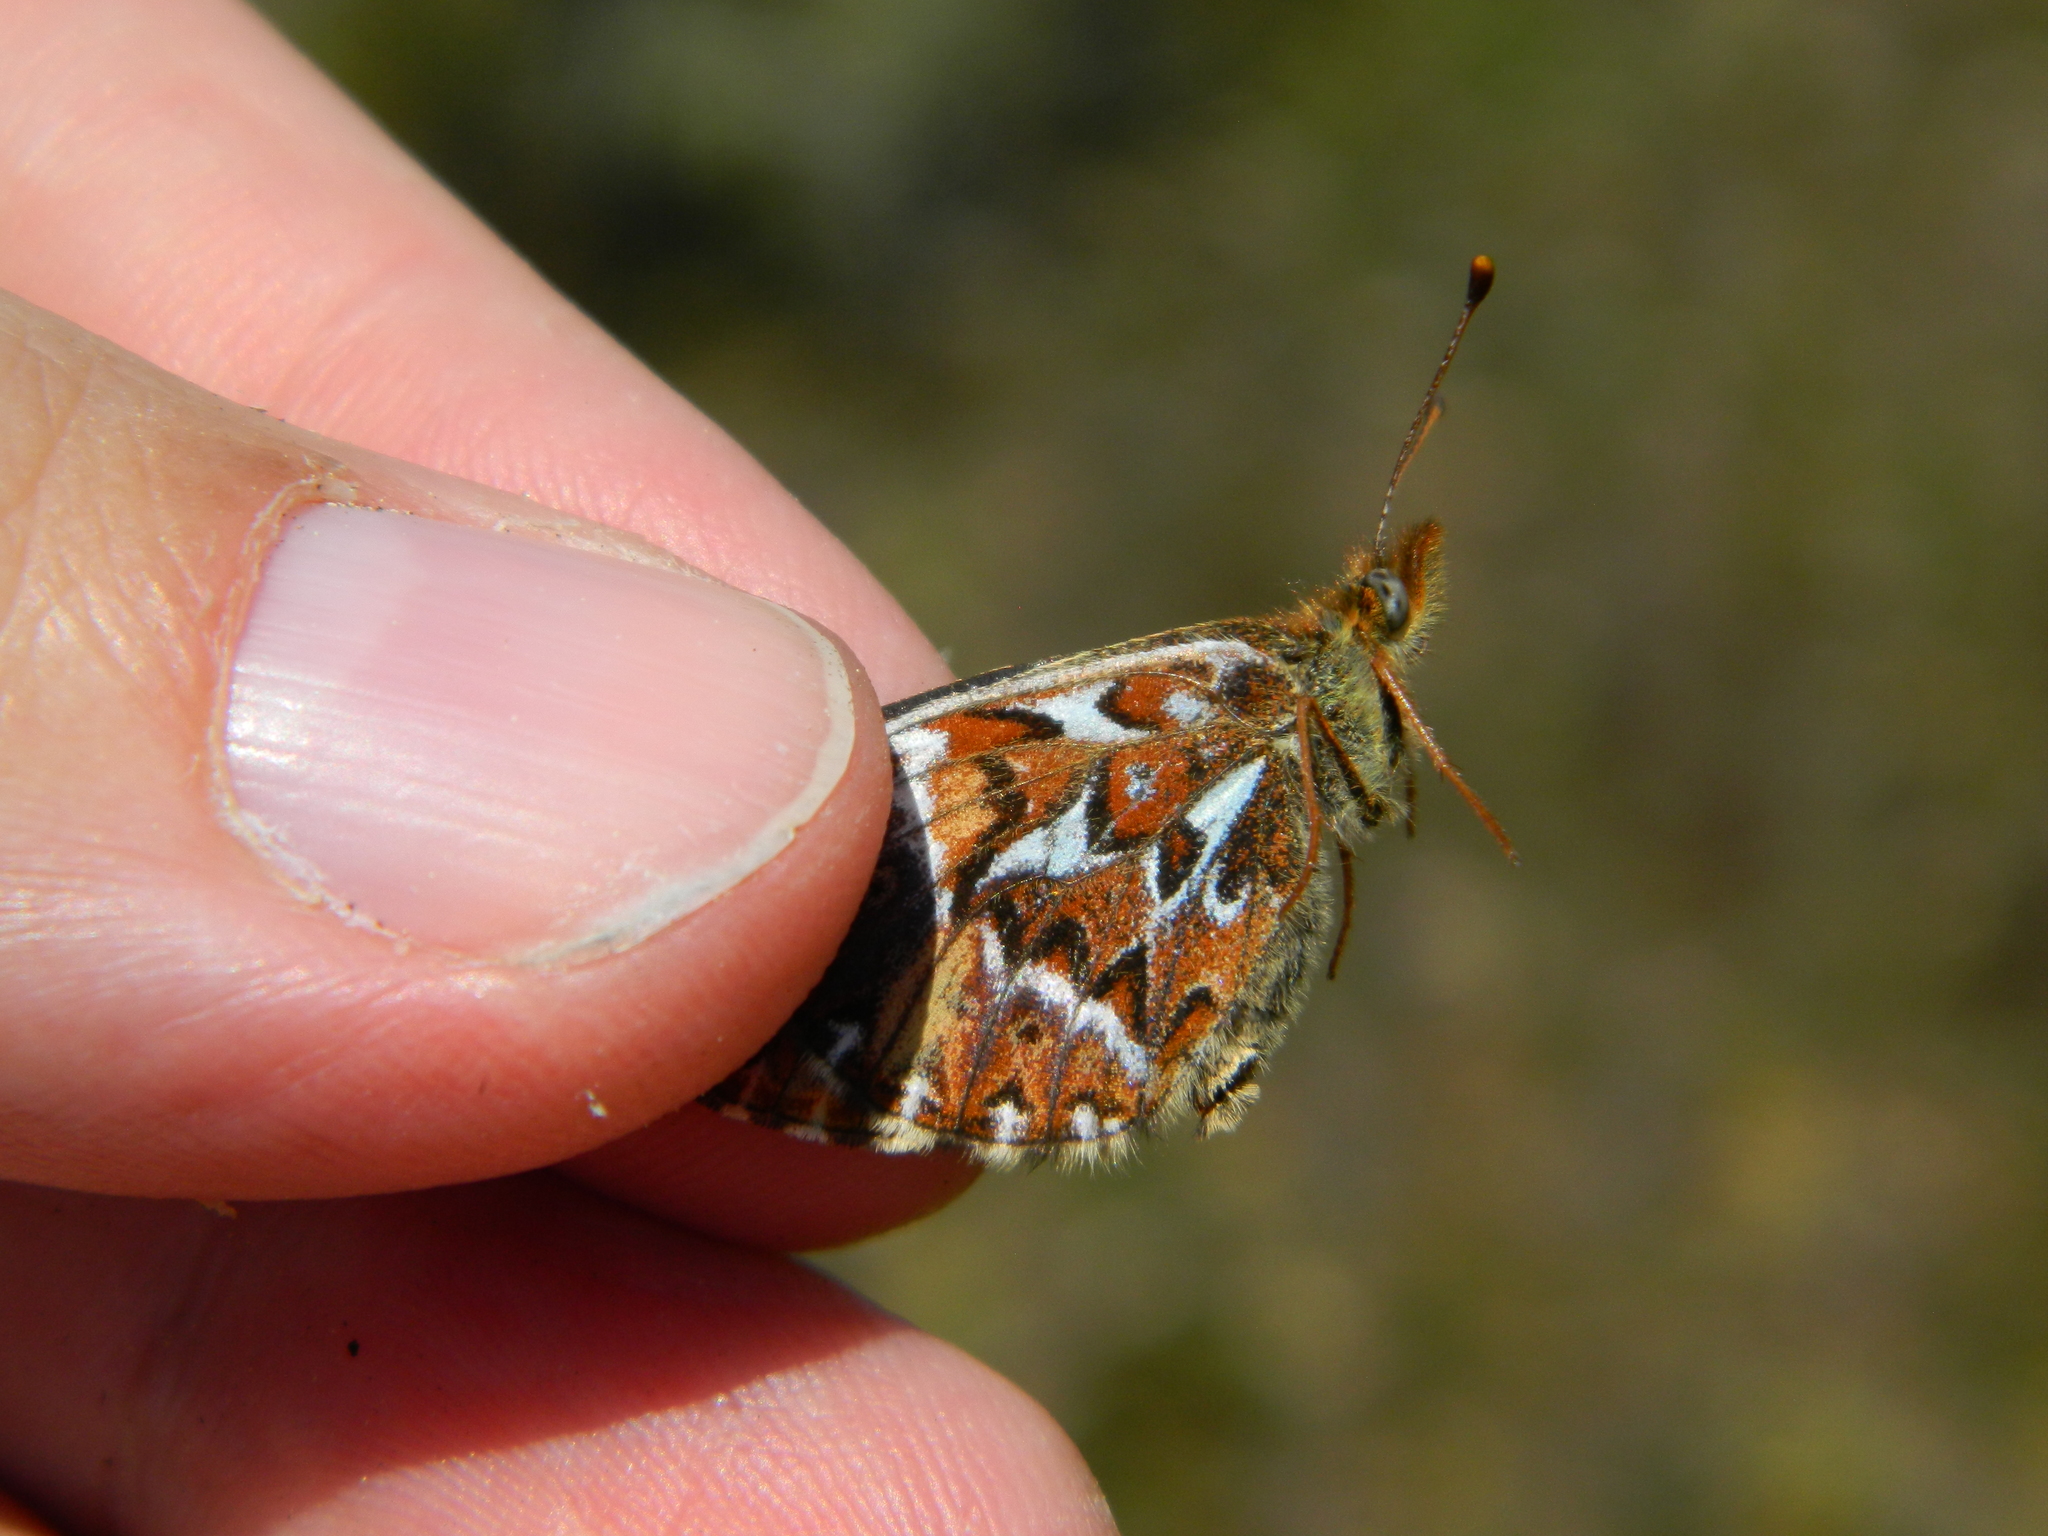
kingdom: Animalia
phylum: Arthropoda
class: Insecta
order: Lepidoptera
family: Nymphalidae
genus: Boloria
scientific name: Boloria freija
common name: Freija fritillary
